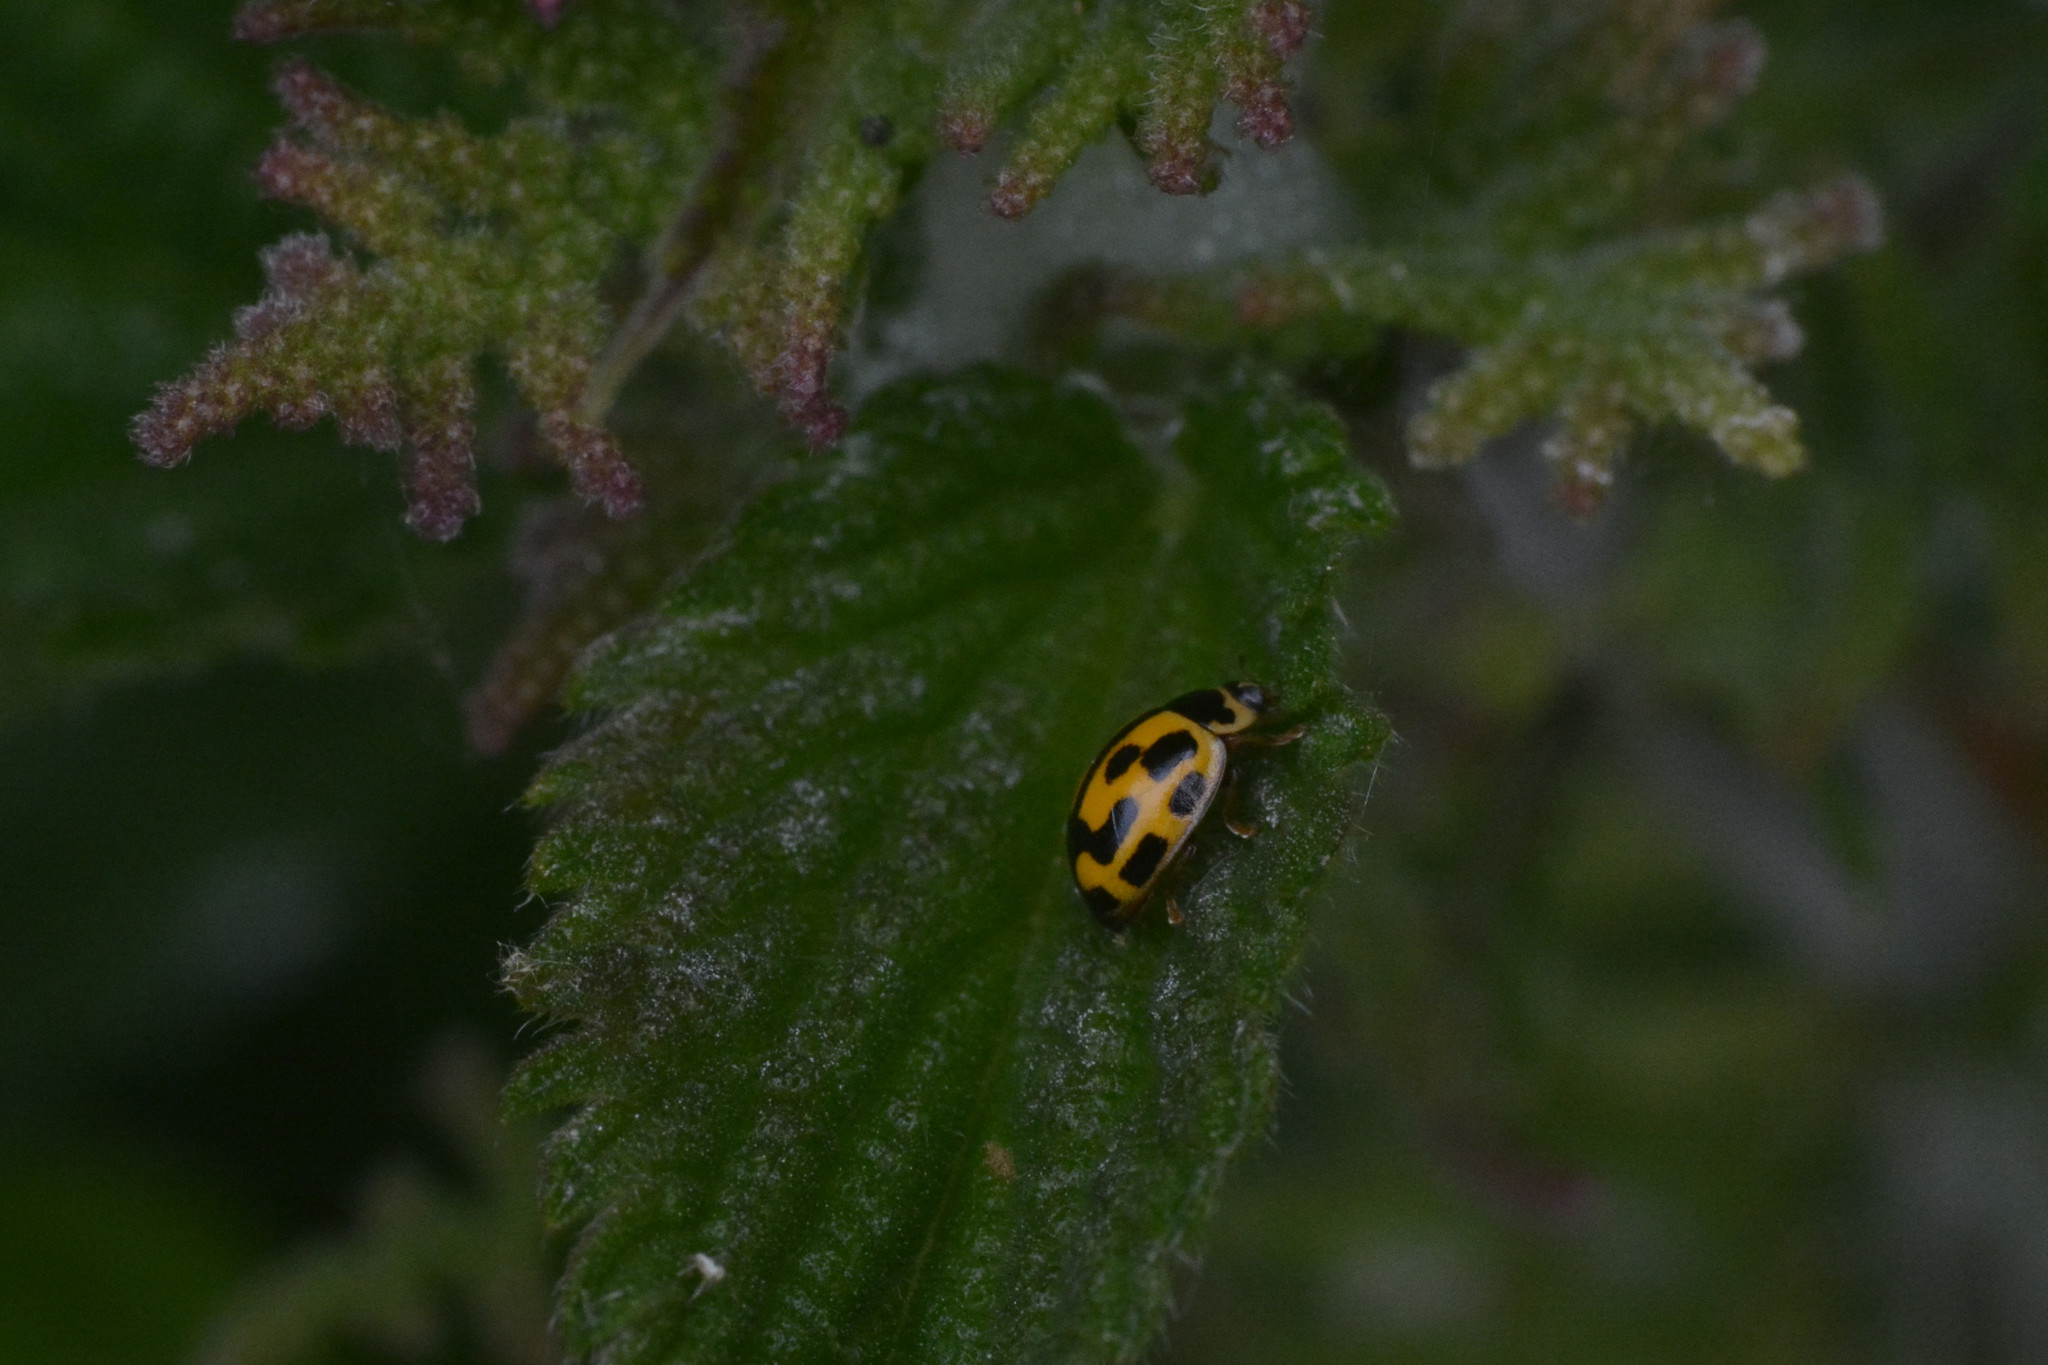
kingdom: Animalia
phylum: Arthropoda
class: Insecta
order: Coleoptera
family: Coccinellidae
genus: Propylaea
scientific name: Propylaea quatuordecimpunctata
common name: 14-spotted ladybird beetle
